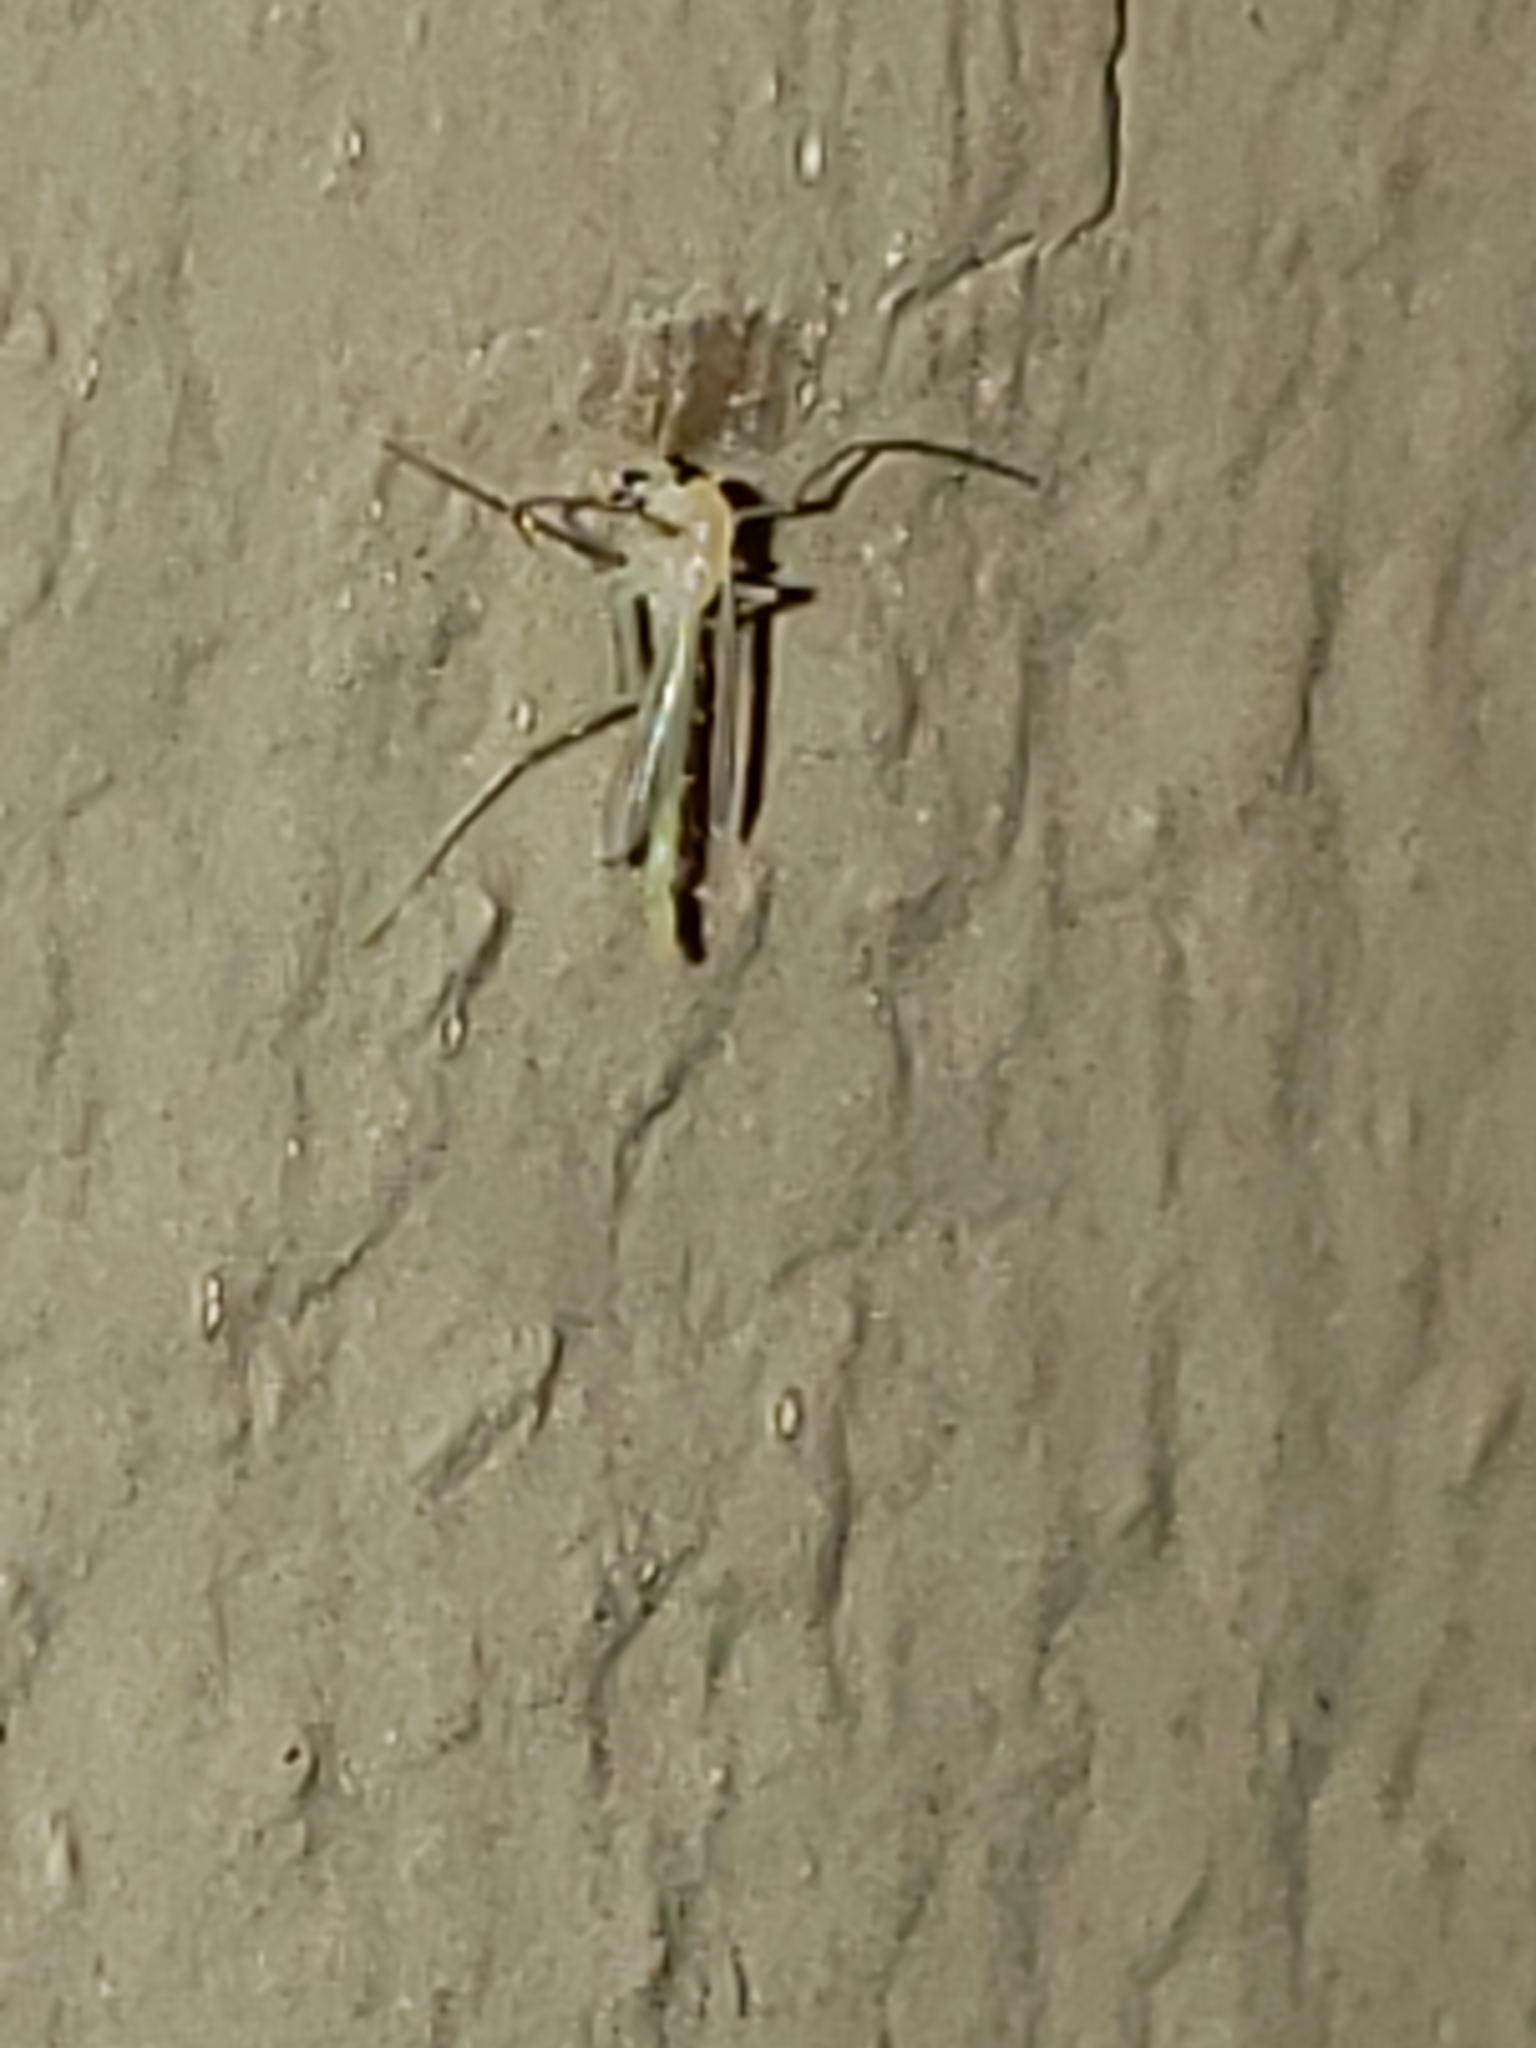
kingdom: Animalia
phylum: Arthropoda
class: Insecta
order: Diptera
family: Chironomidae
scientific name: Chironomidae
